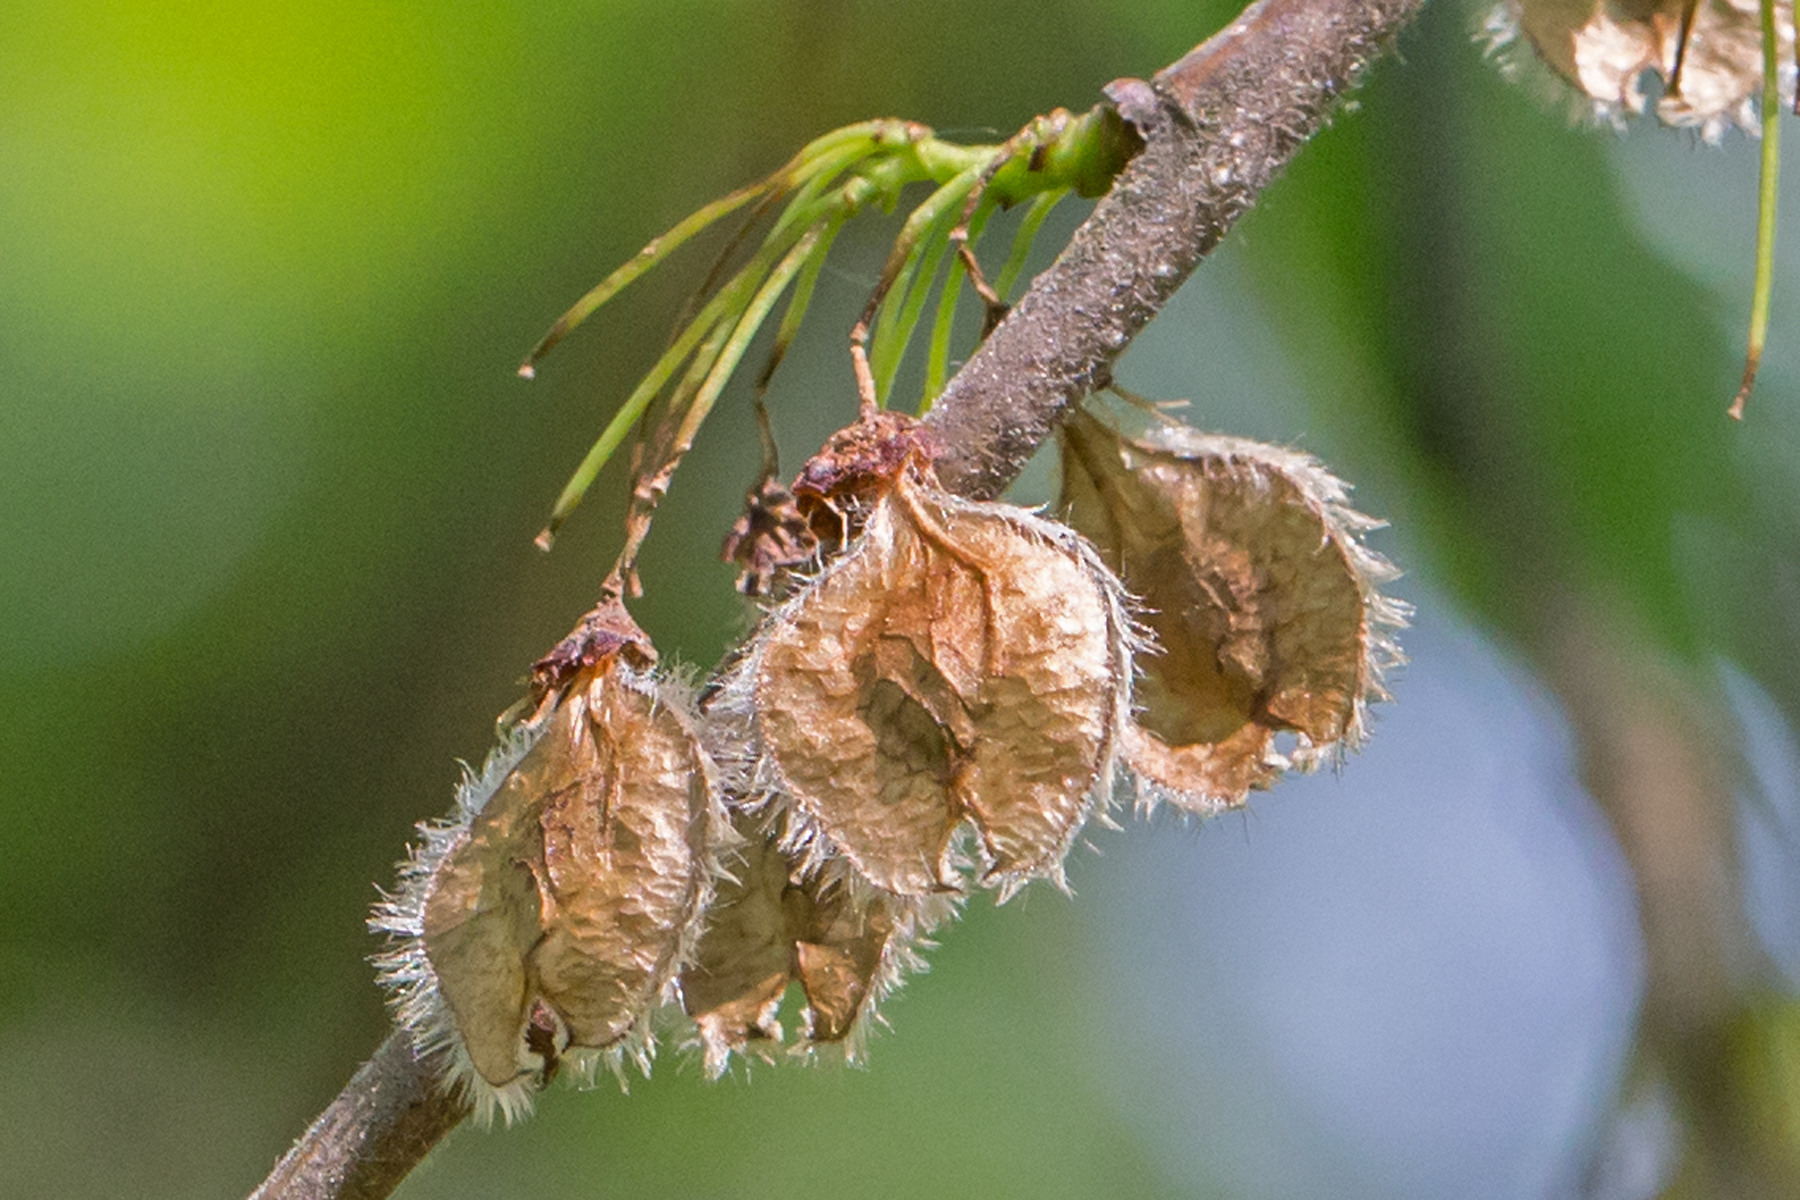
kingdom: Plantae
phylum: Tracheophyta
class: Magnoliopsida
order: Rosales
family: Ulmaceae
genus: Ulmus
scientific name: Ulmus americana
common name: American elm
